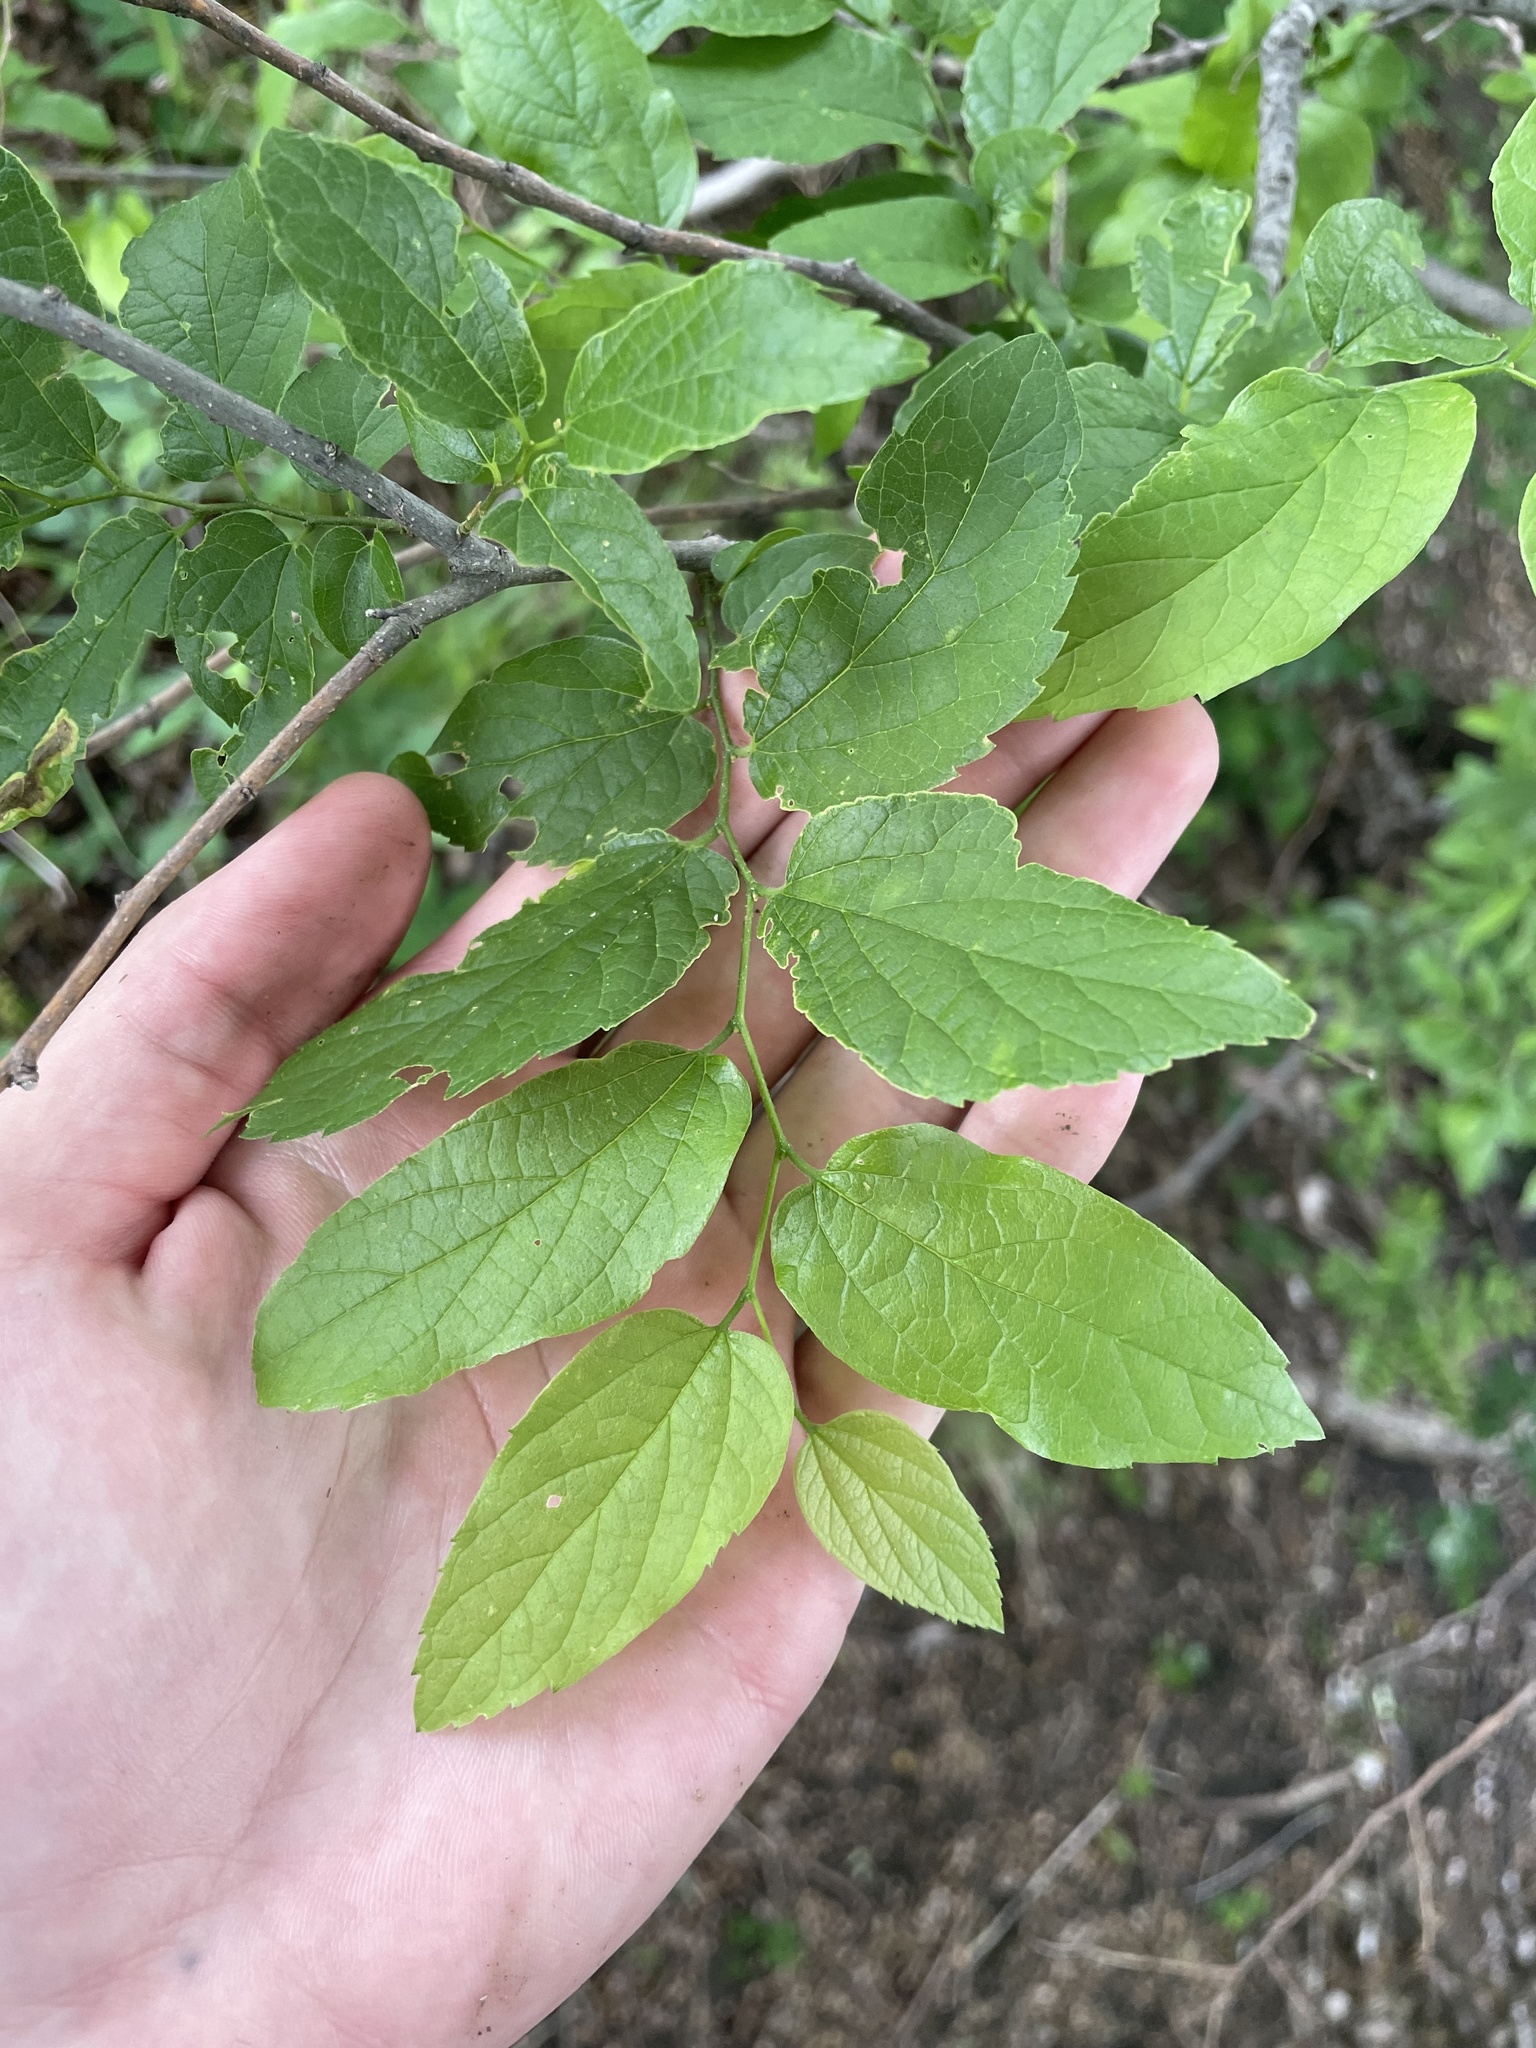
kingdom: Plantae
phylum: Tracheophyta
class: Magnoliopsida
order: Rosales
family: Cannabaceae
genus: Celtis
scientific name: Celtis laevigata
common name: Sugarberry
